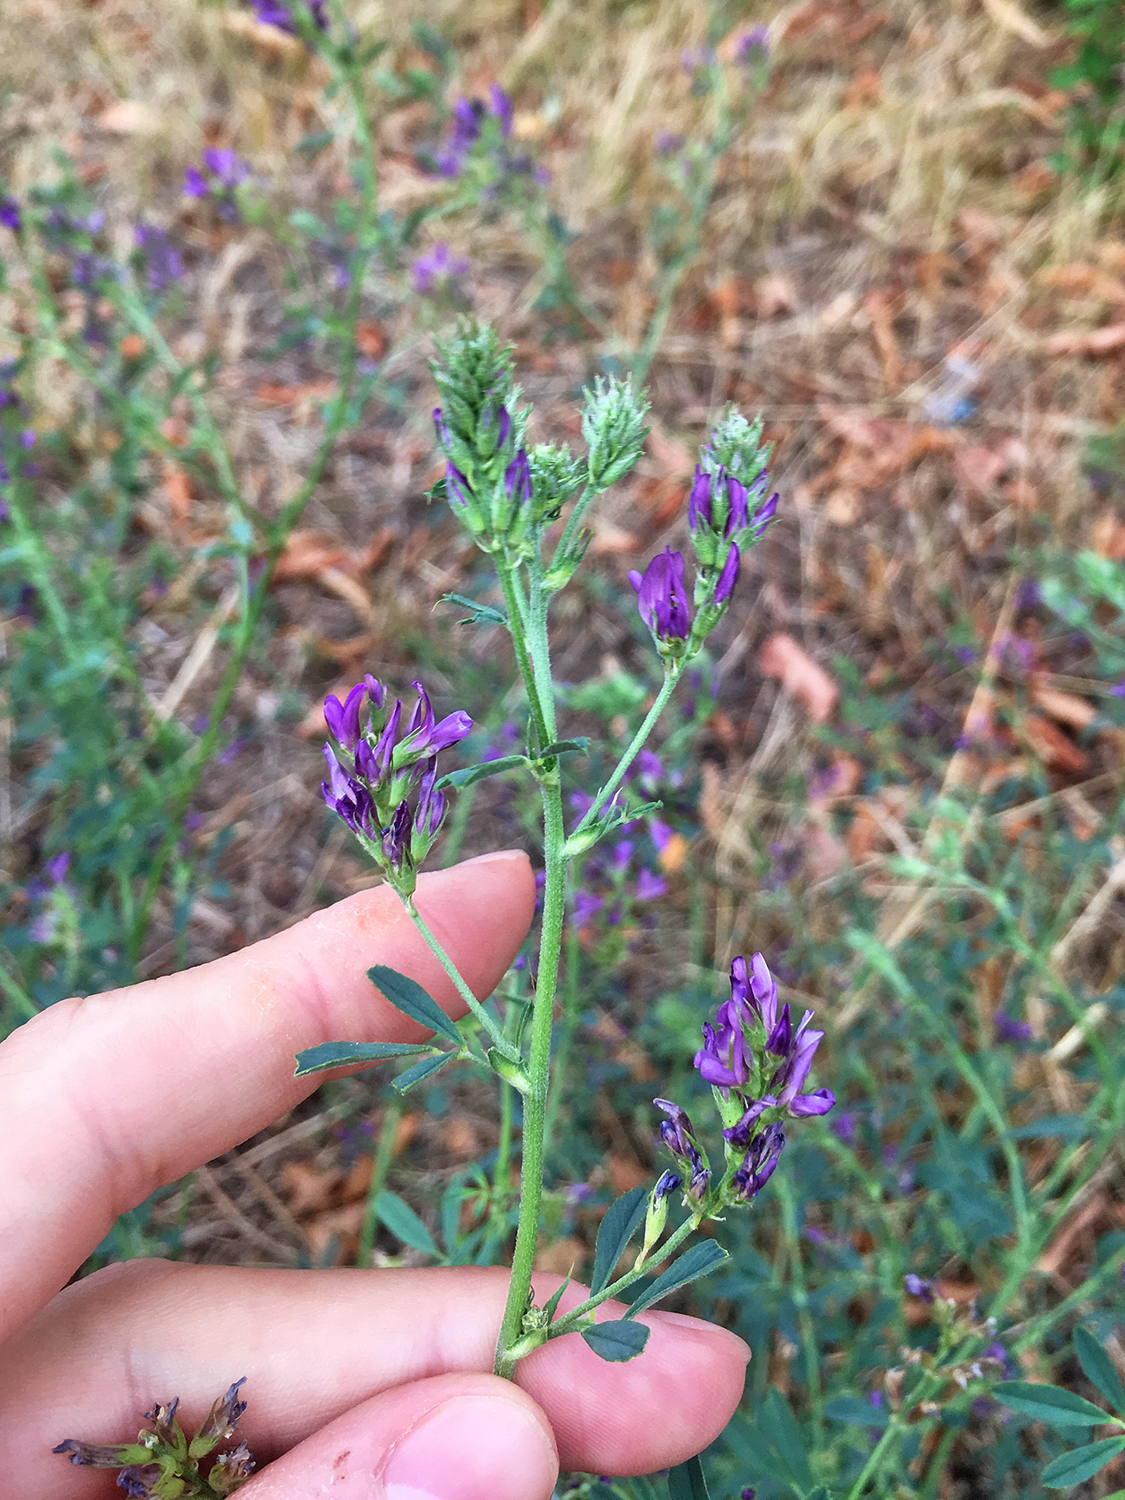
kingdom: Plantae
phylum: Tracheophyta
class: Magnoliopsida
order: Fabales
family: Fabaceae
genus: Medicago
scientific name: Medicago sativa
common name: Alfalfa
